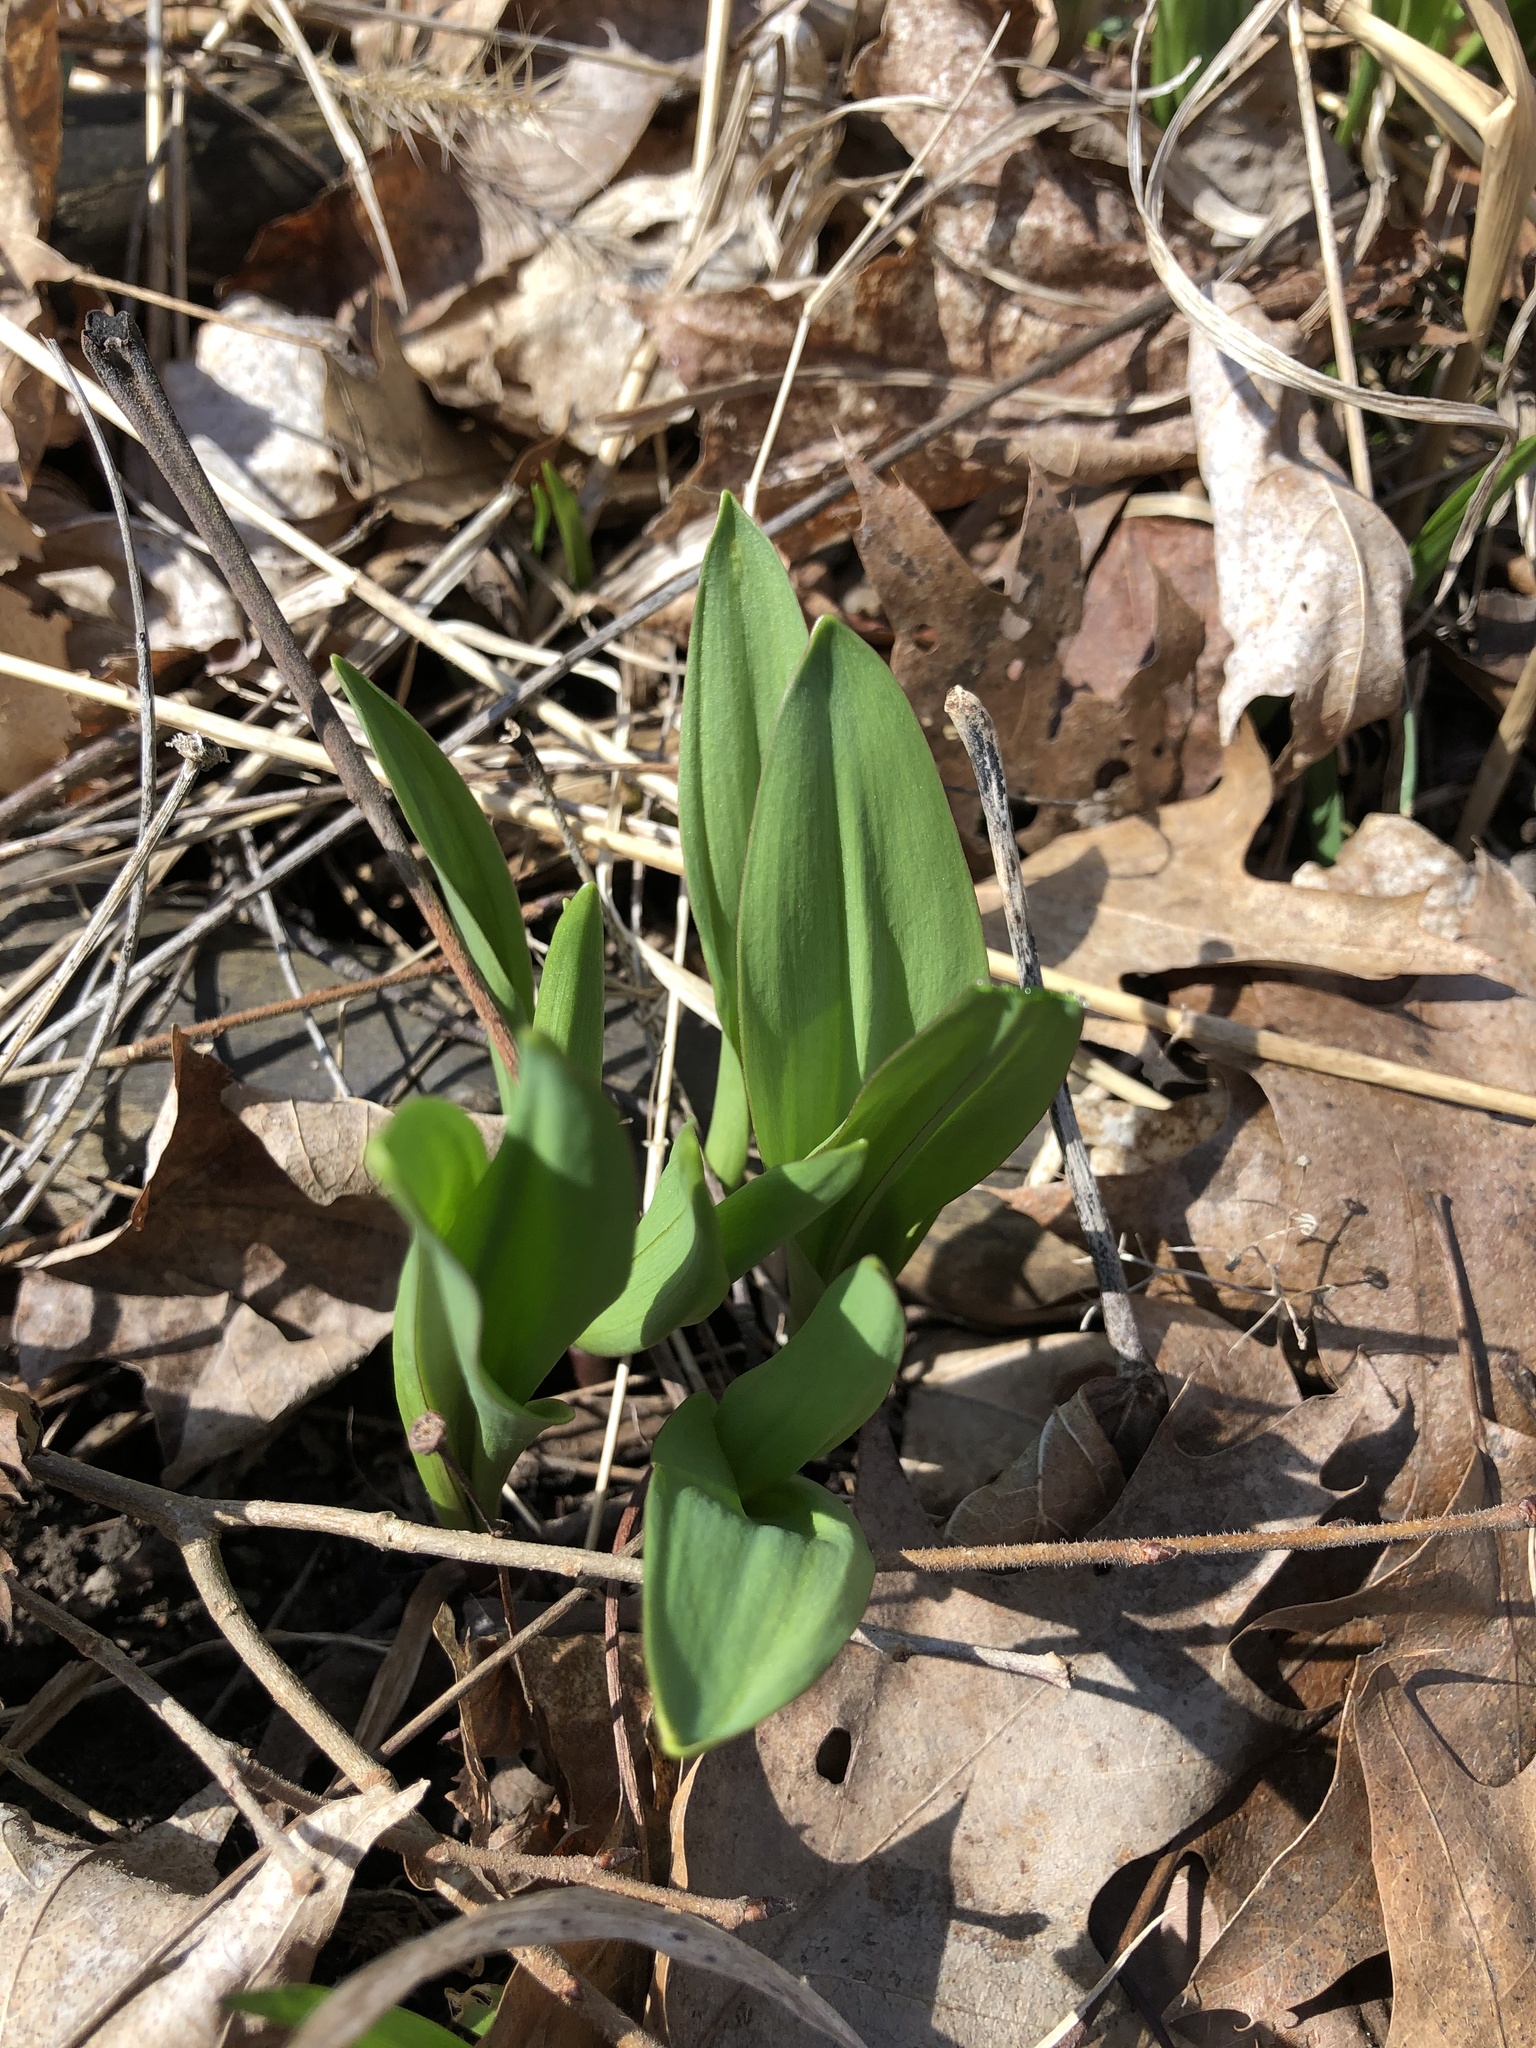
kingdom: Plantae
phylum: Tracheophyta
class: Liliopsida
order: Asparagales
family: Amaryllidaceae
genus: Allium
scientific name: Allium tricoccum
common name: Ramp
